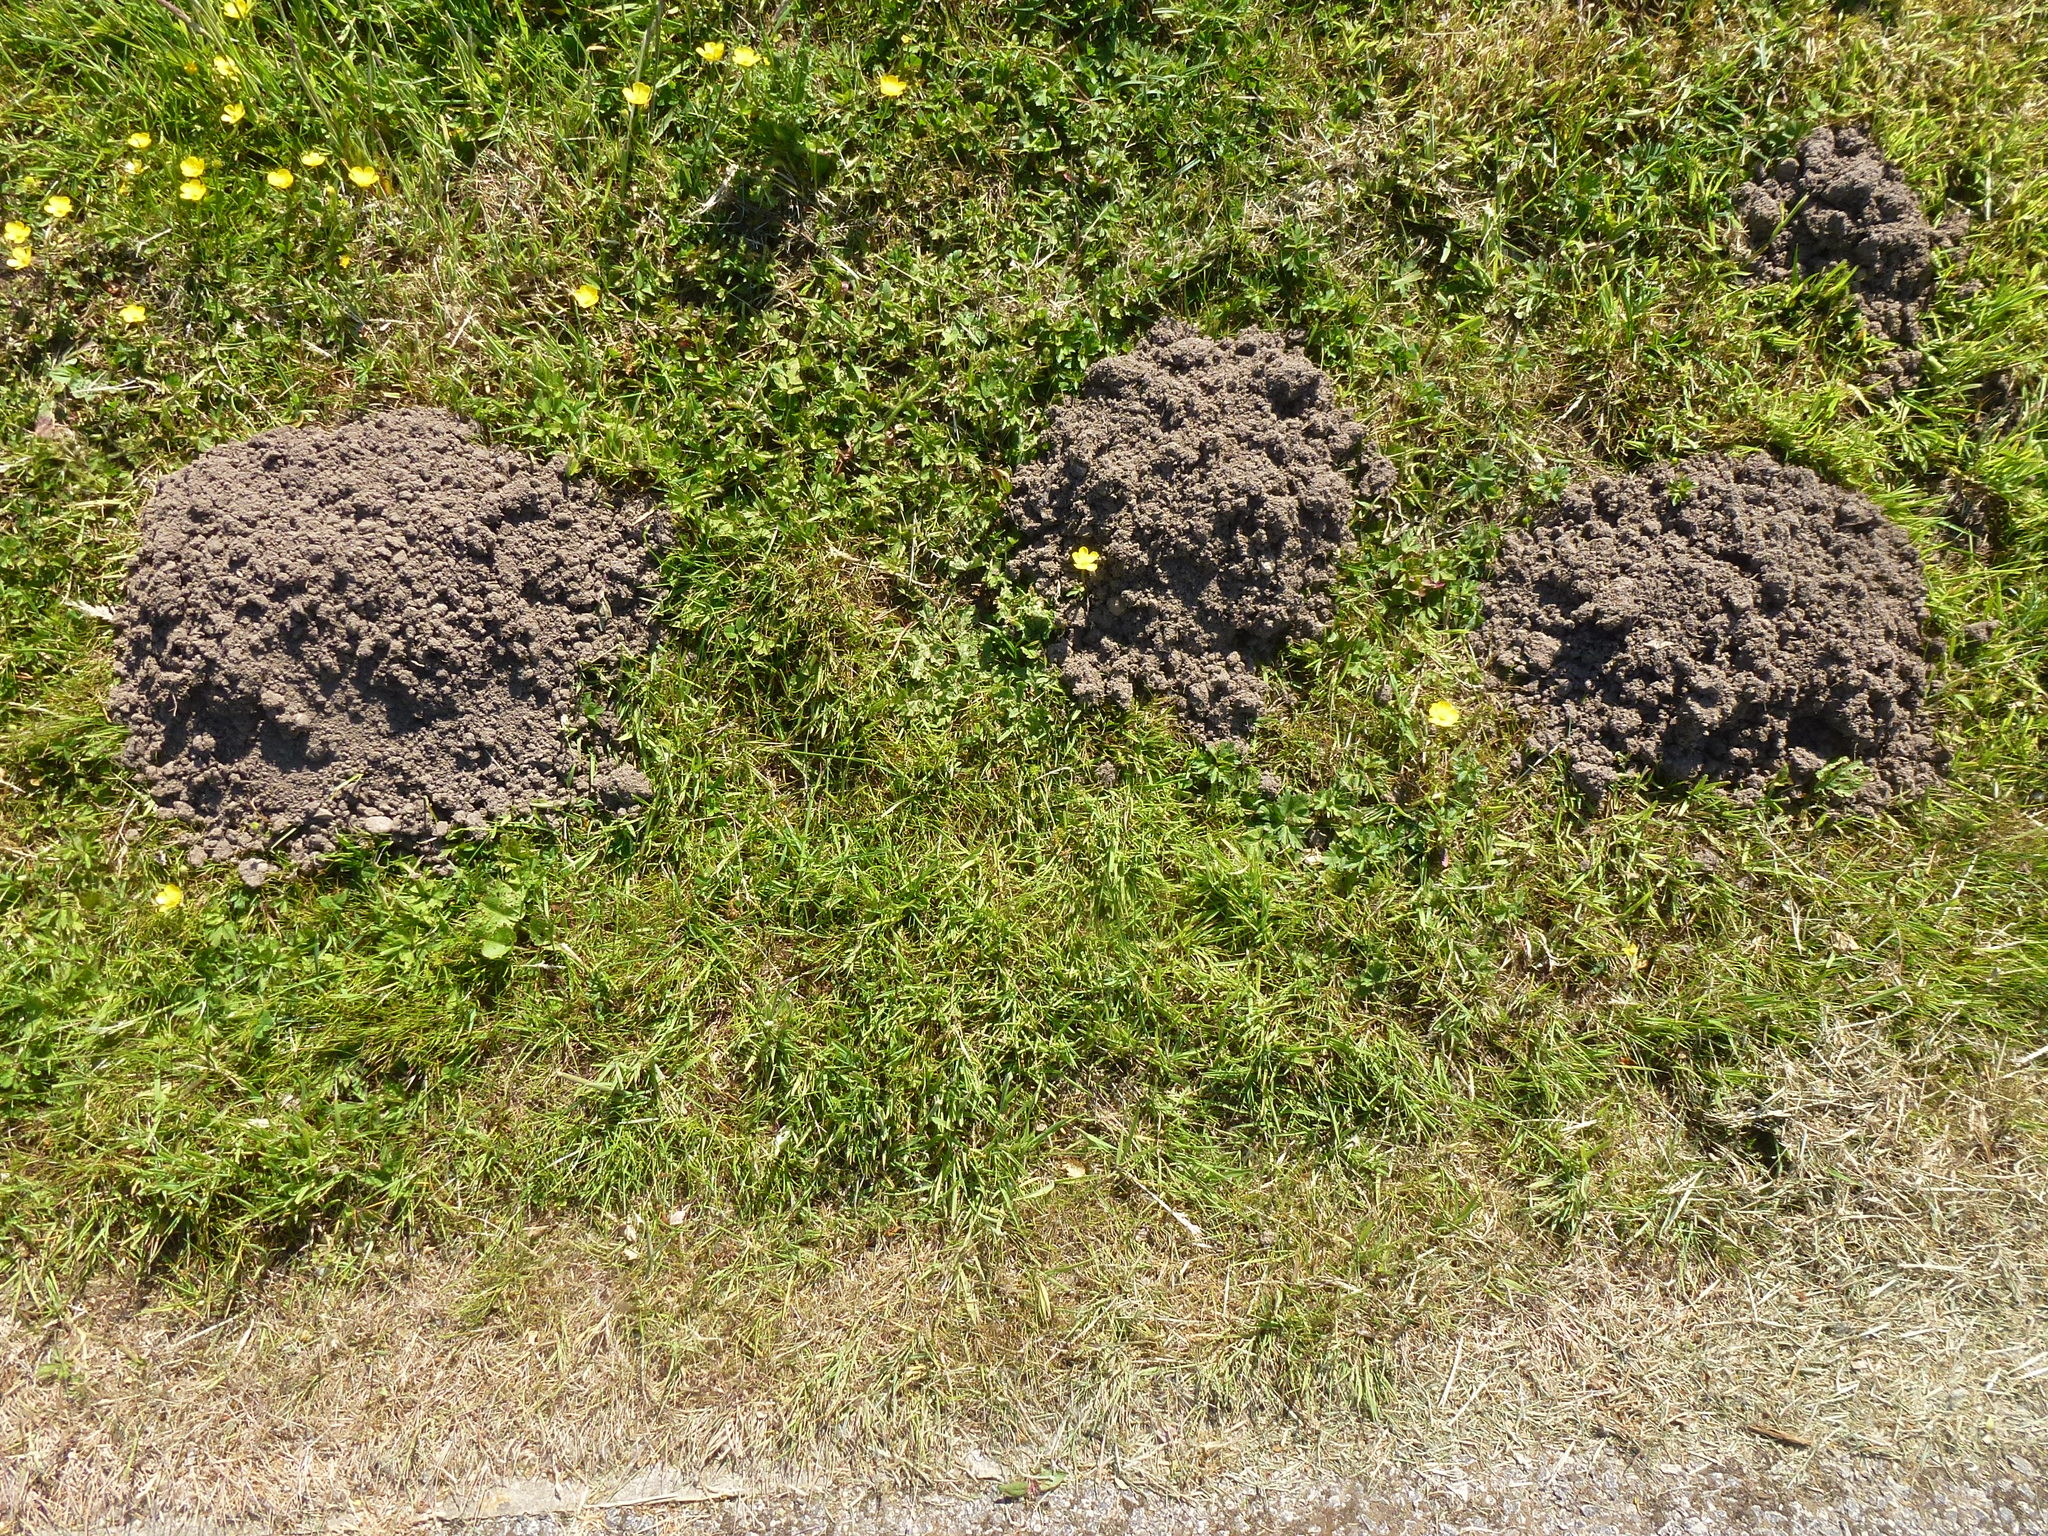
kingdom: Animalia
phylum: Chordata
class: Mammalia
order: Soricomorpha
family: Talpidae
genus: Talpa
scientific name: Talpa europaea
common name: European mole
